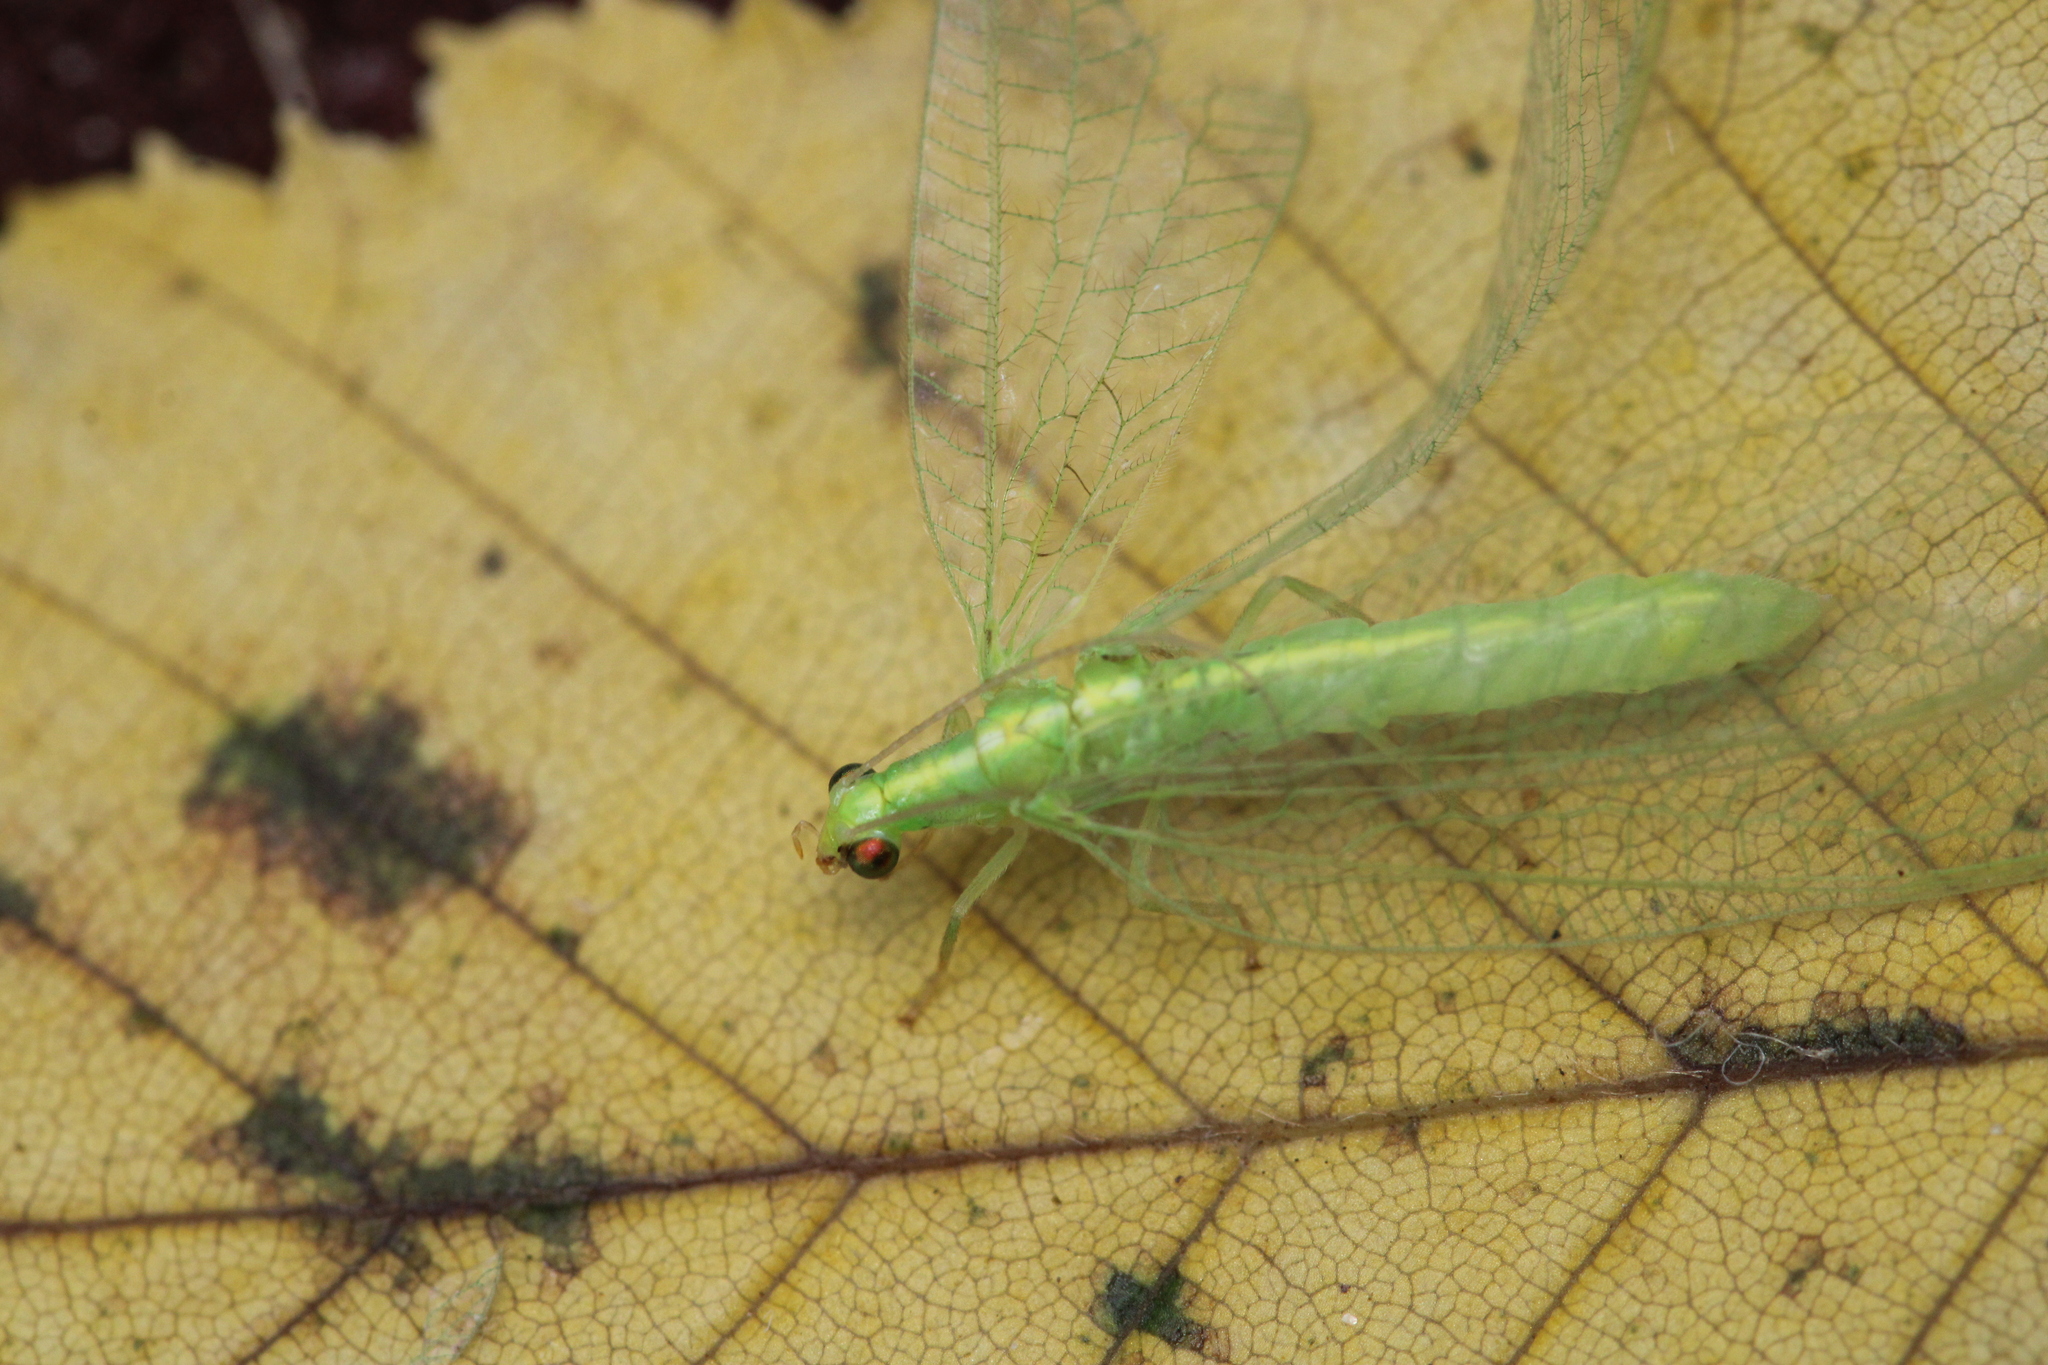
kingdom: Animalia
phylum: Arthropoda
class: Insecta
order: Neuroptera
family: Chrysopidae
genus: Chrysoperla
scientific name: Chrysoperla
